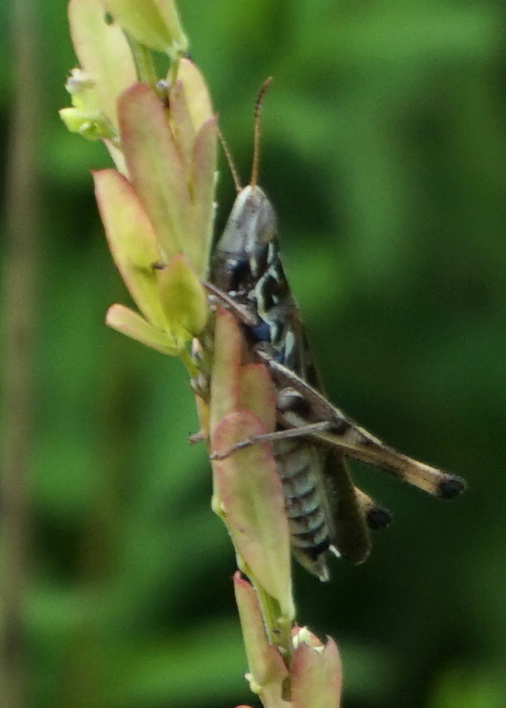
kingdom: Animalia
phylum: Arthropoda
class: Insecta
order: Orthoptera
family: Acrididae
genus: Syrbula
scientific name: Syrbula admirabilis
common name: Handsome grasshopper
